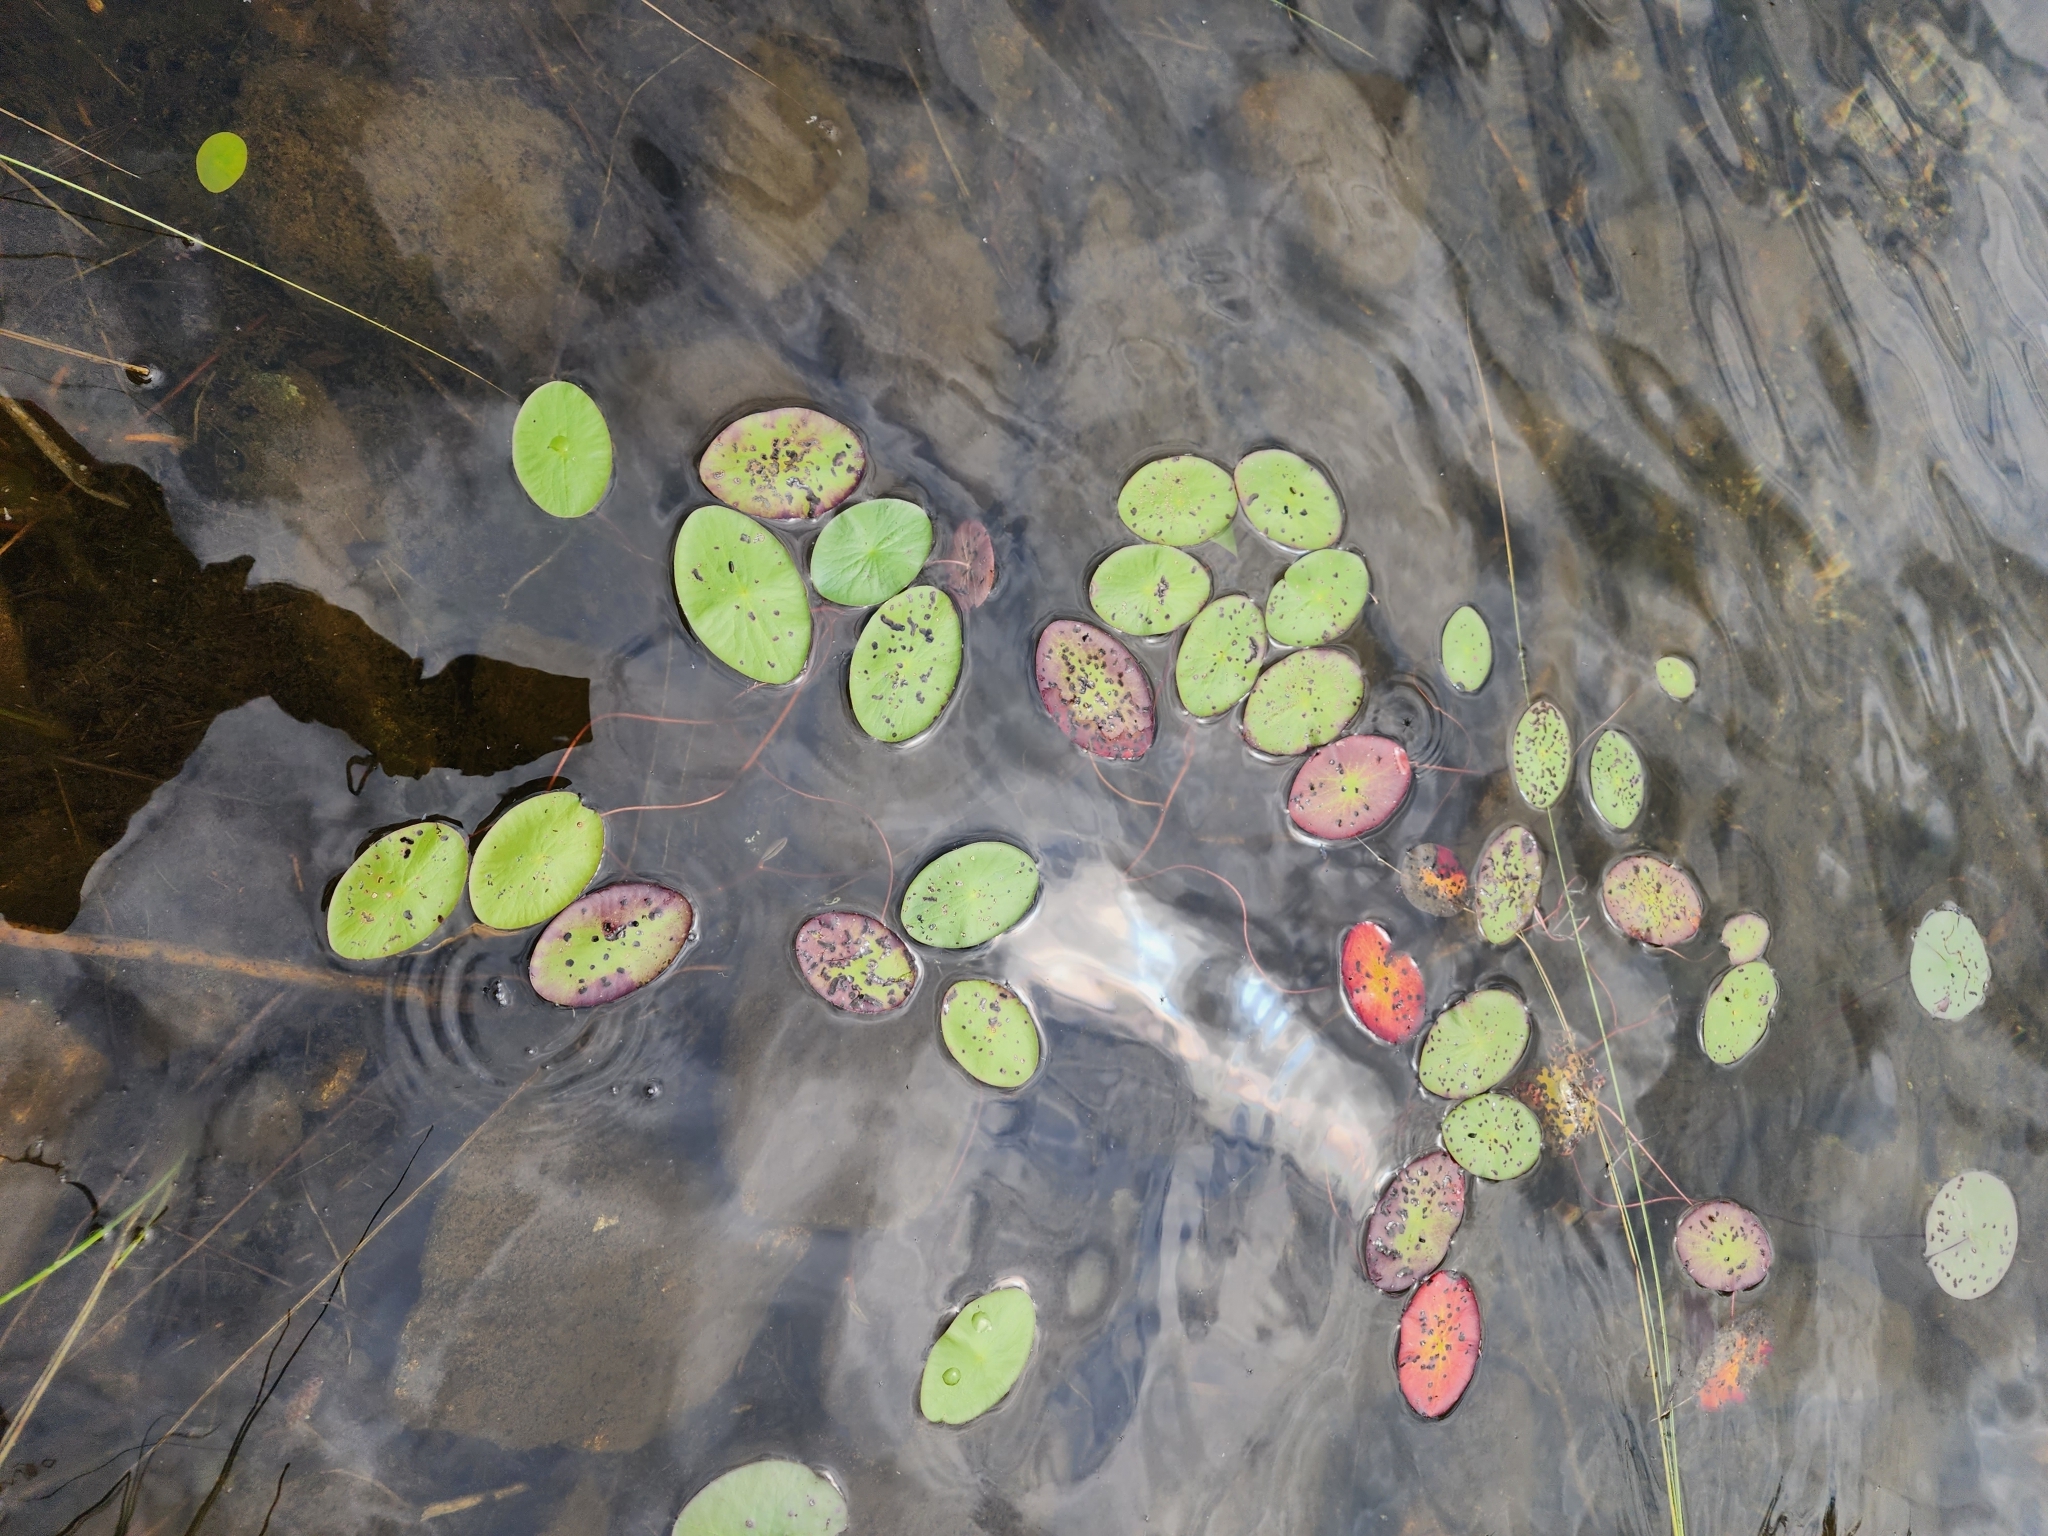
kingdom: Plantae
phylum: Tracheophyta
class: Magnoliopsida
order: Nymphaeales
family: Cabombaceae
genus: Brasenia
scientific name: Brasenia schreberi
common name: Water-shield
